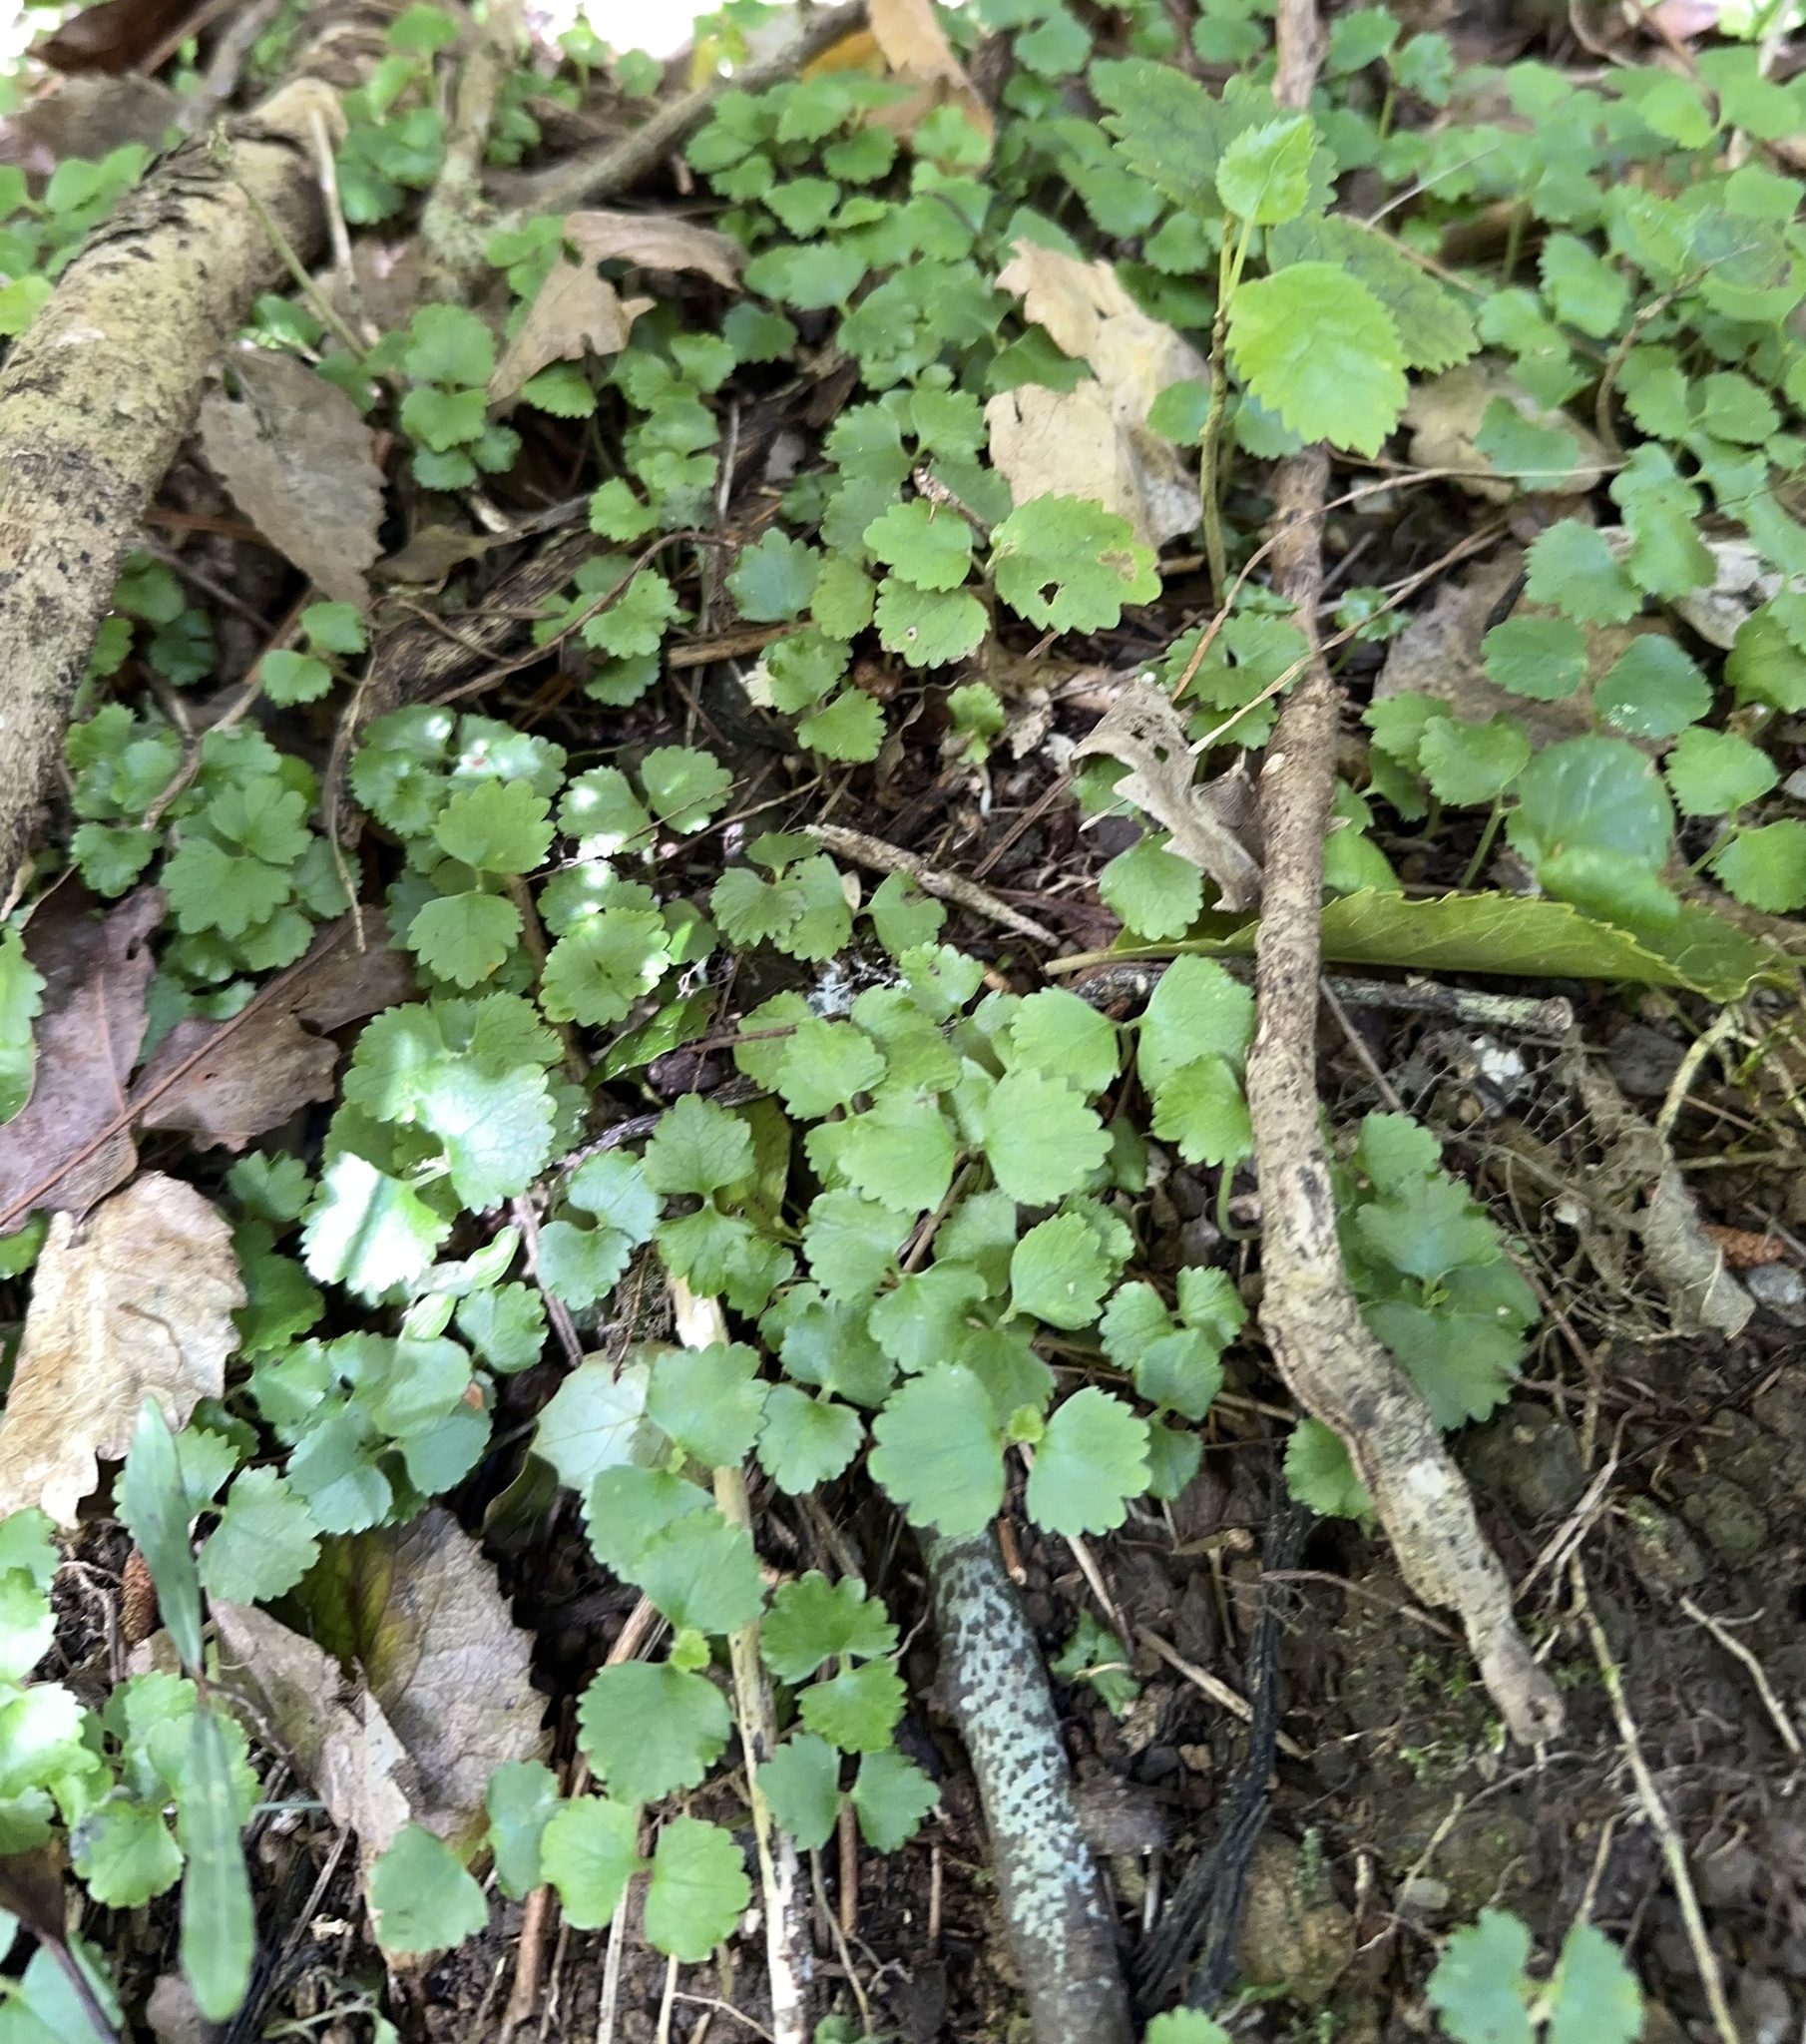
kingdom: Plantae
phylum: Tracheophyta
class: Magnoliopsida
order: Rosales
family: Urticaceae
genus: Australina
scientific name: Australina pusilla
